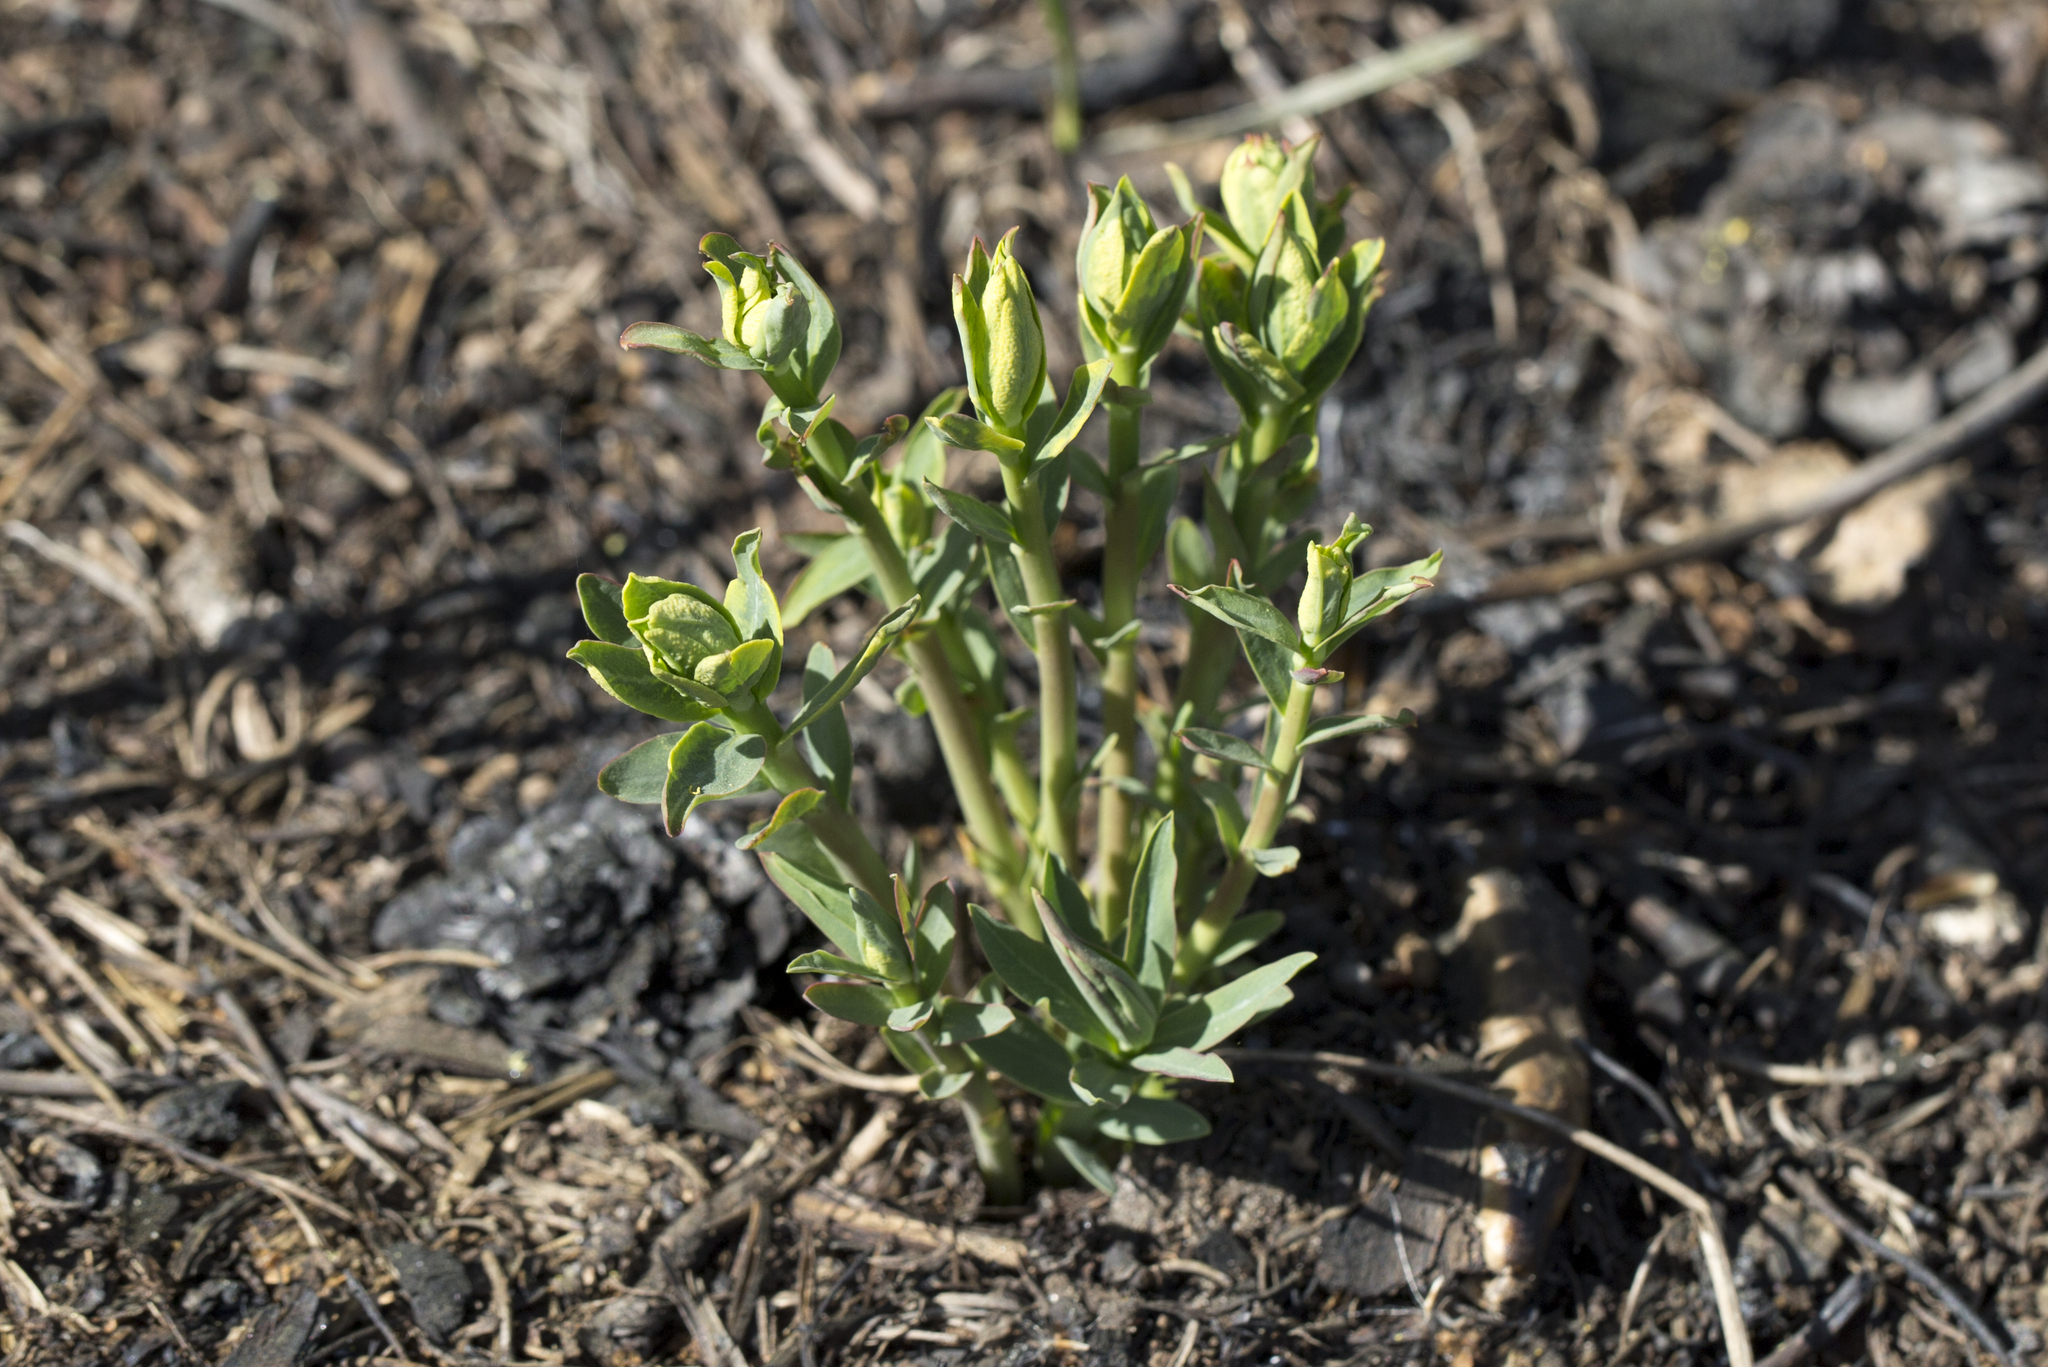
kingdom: Plantae
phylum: Tracheophyta
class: Magnoliopsida
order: Malpighiales
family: Euphorbiaceae
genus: Euphorbia
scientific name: Euphorbia virgata
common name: Leafy spurge
